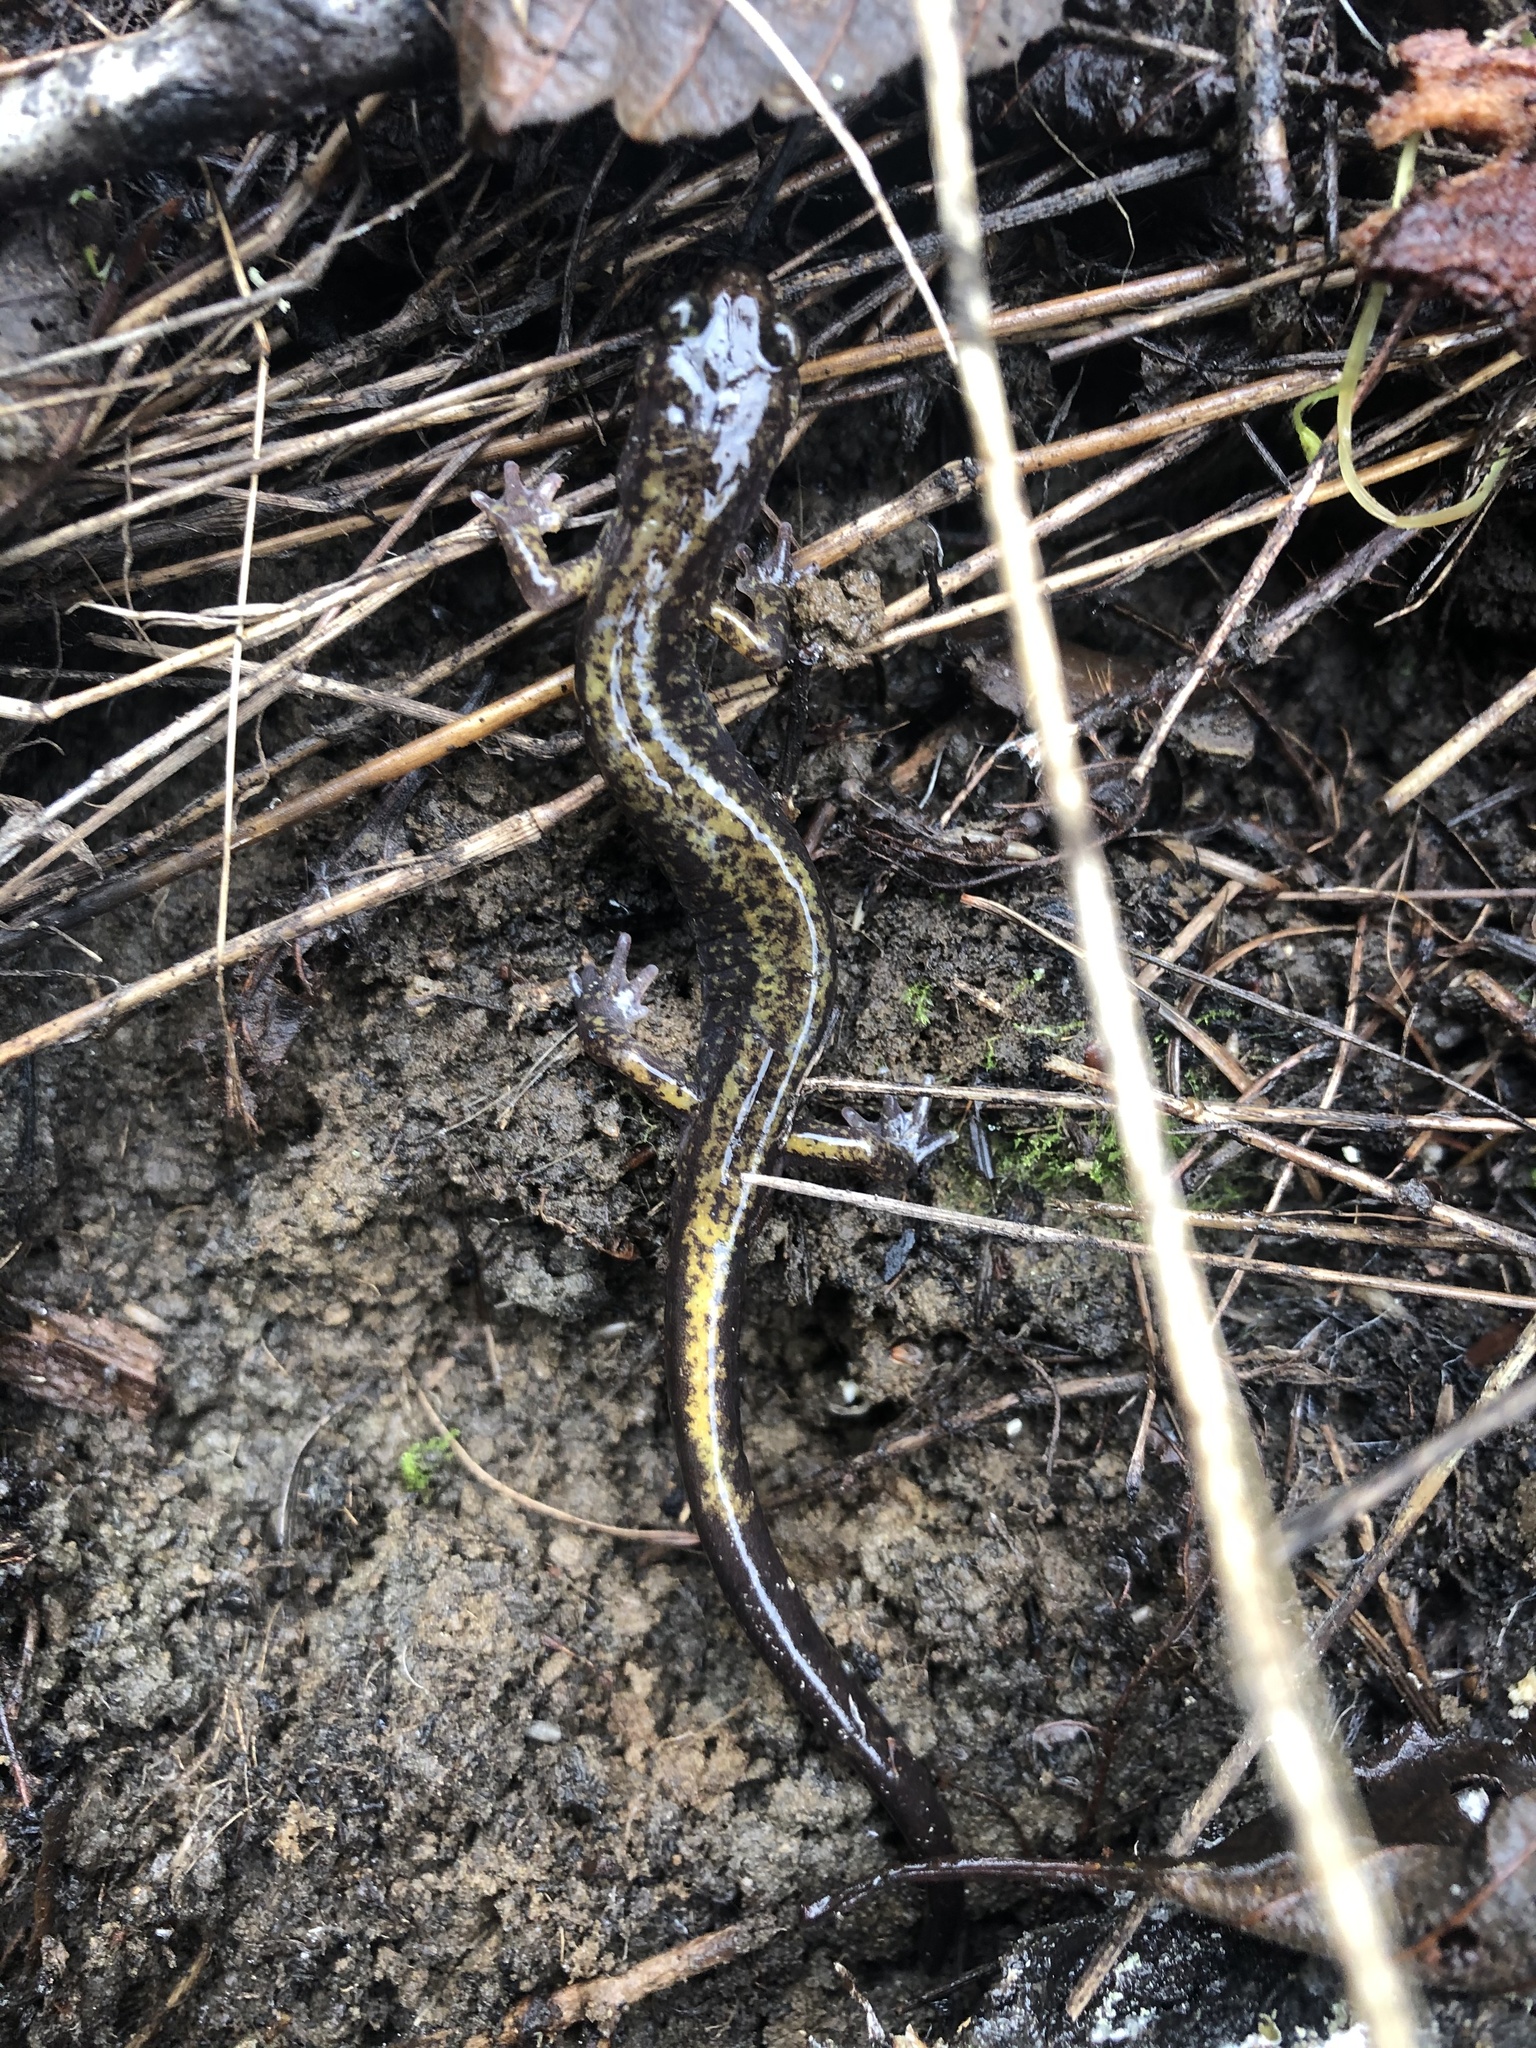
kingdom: Animalia
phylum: Chordata
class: Amphibia
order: Caudata
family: Plethodontidae
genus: Plethodon
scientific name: Plethodon dunni
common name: Dunn's salamander
